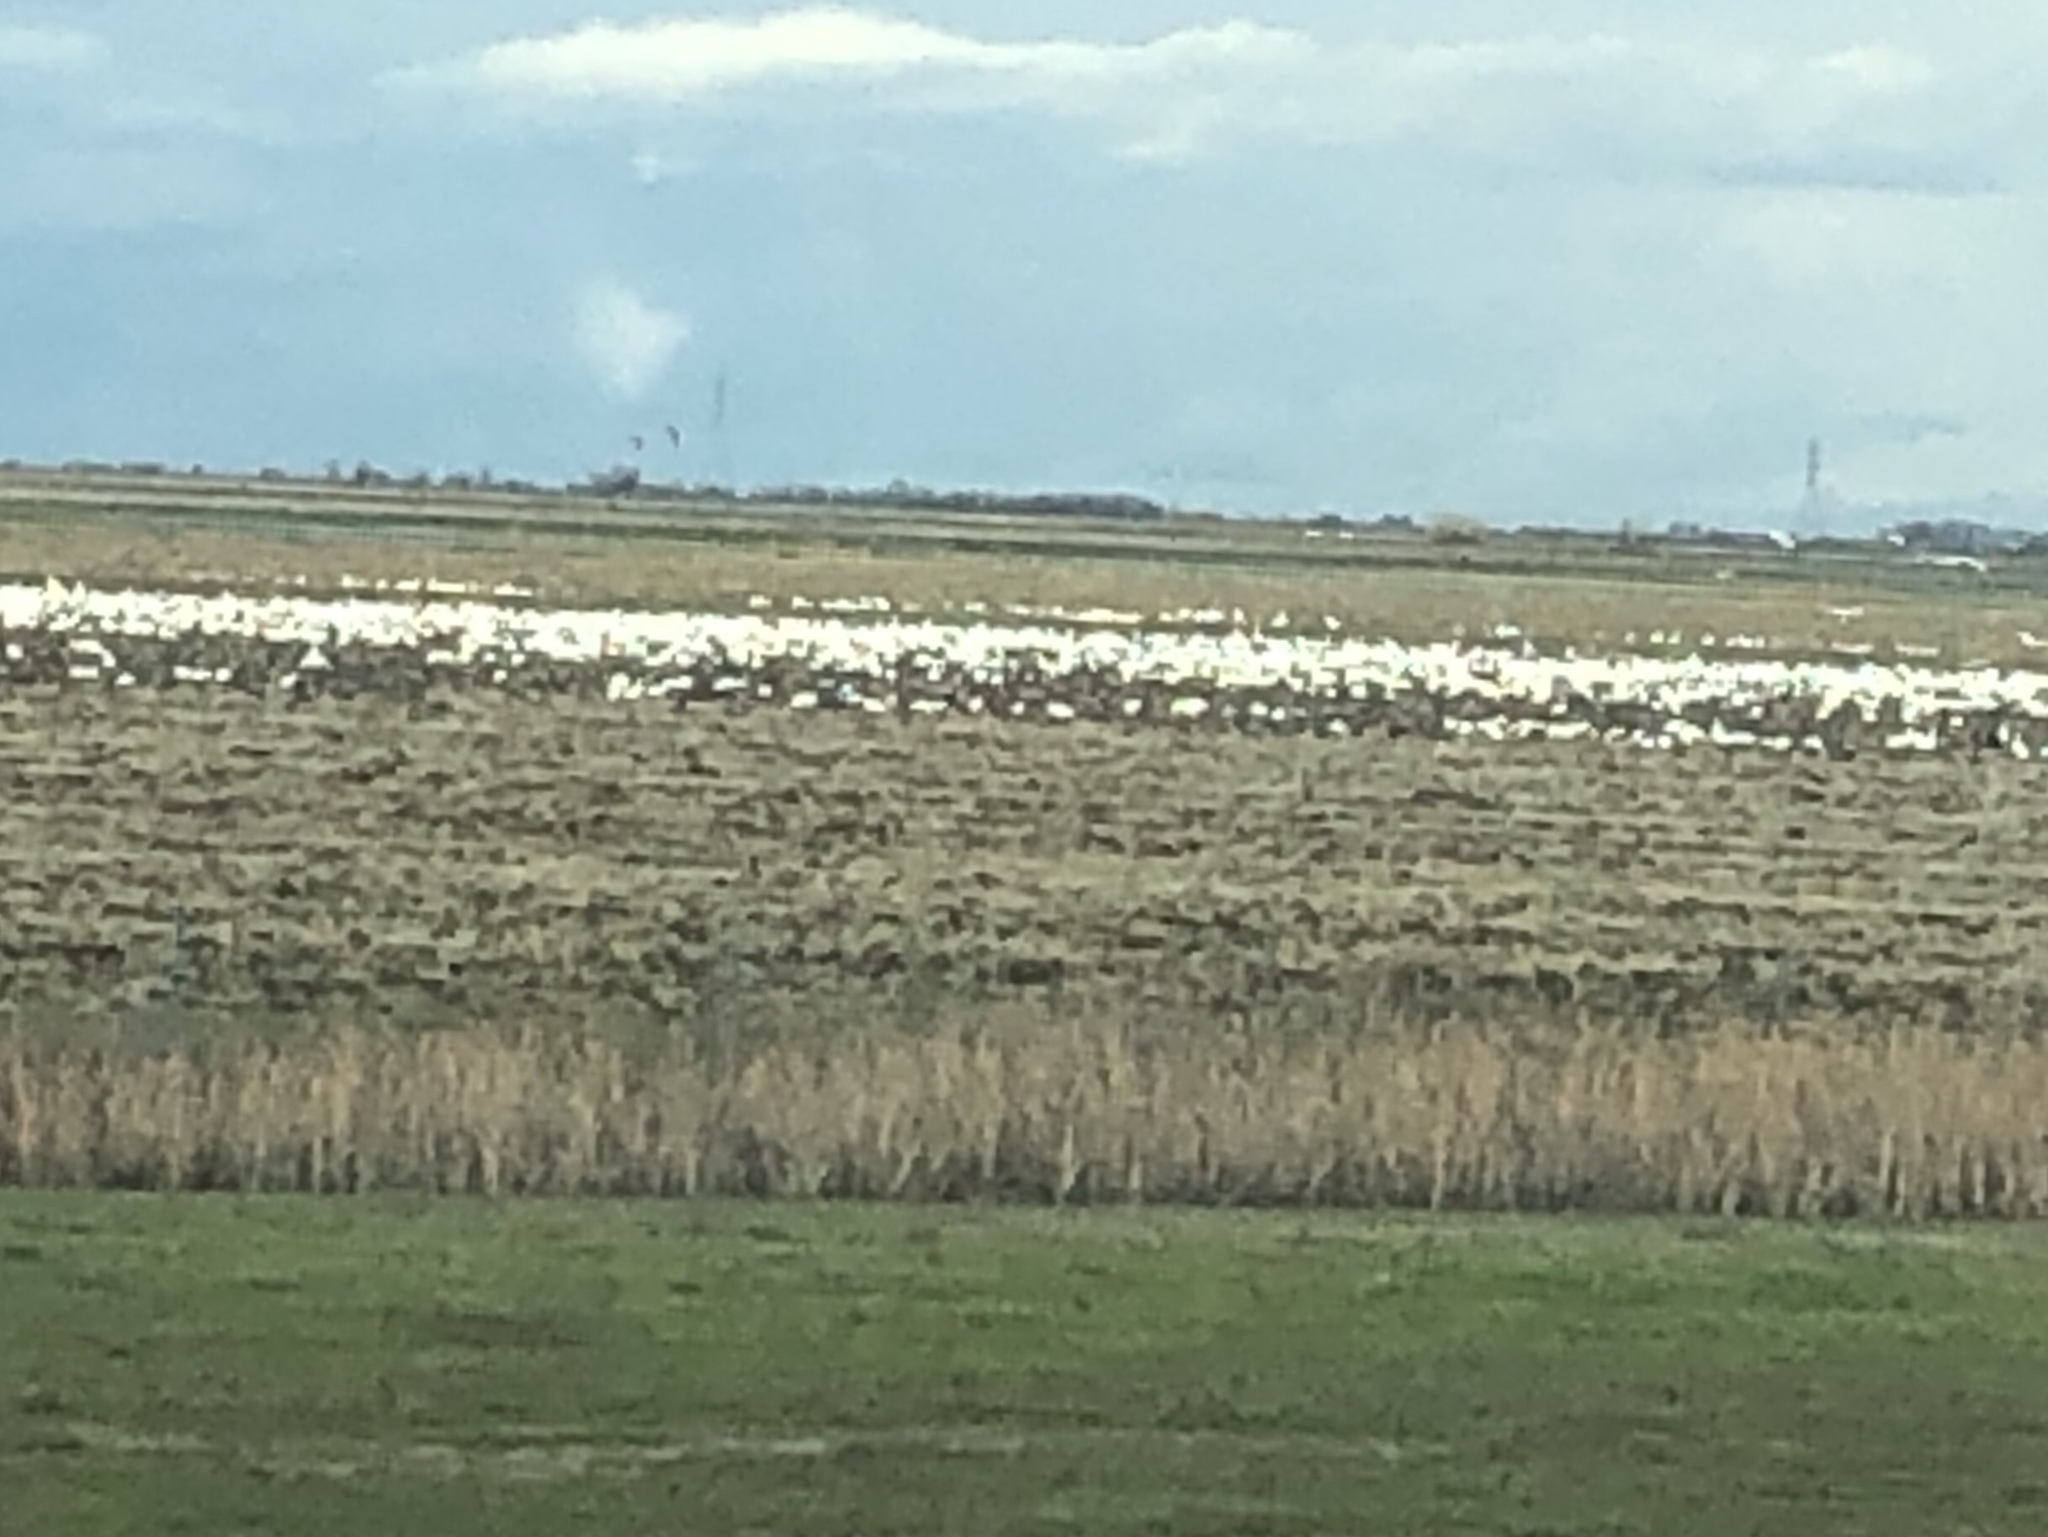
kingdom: Animalia
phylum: Chordata
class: Aves
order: Anseriformes
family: Anatidae
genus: Anser
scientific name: Anser caerulescens
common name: Snow goose
